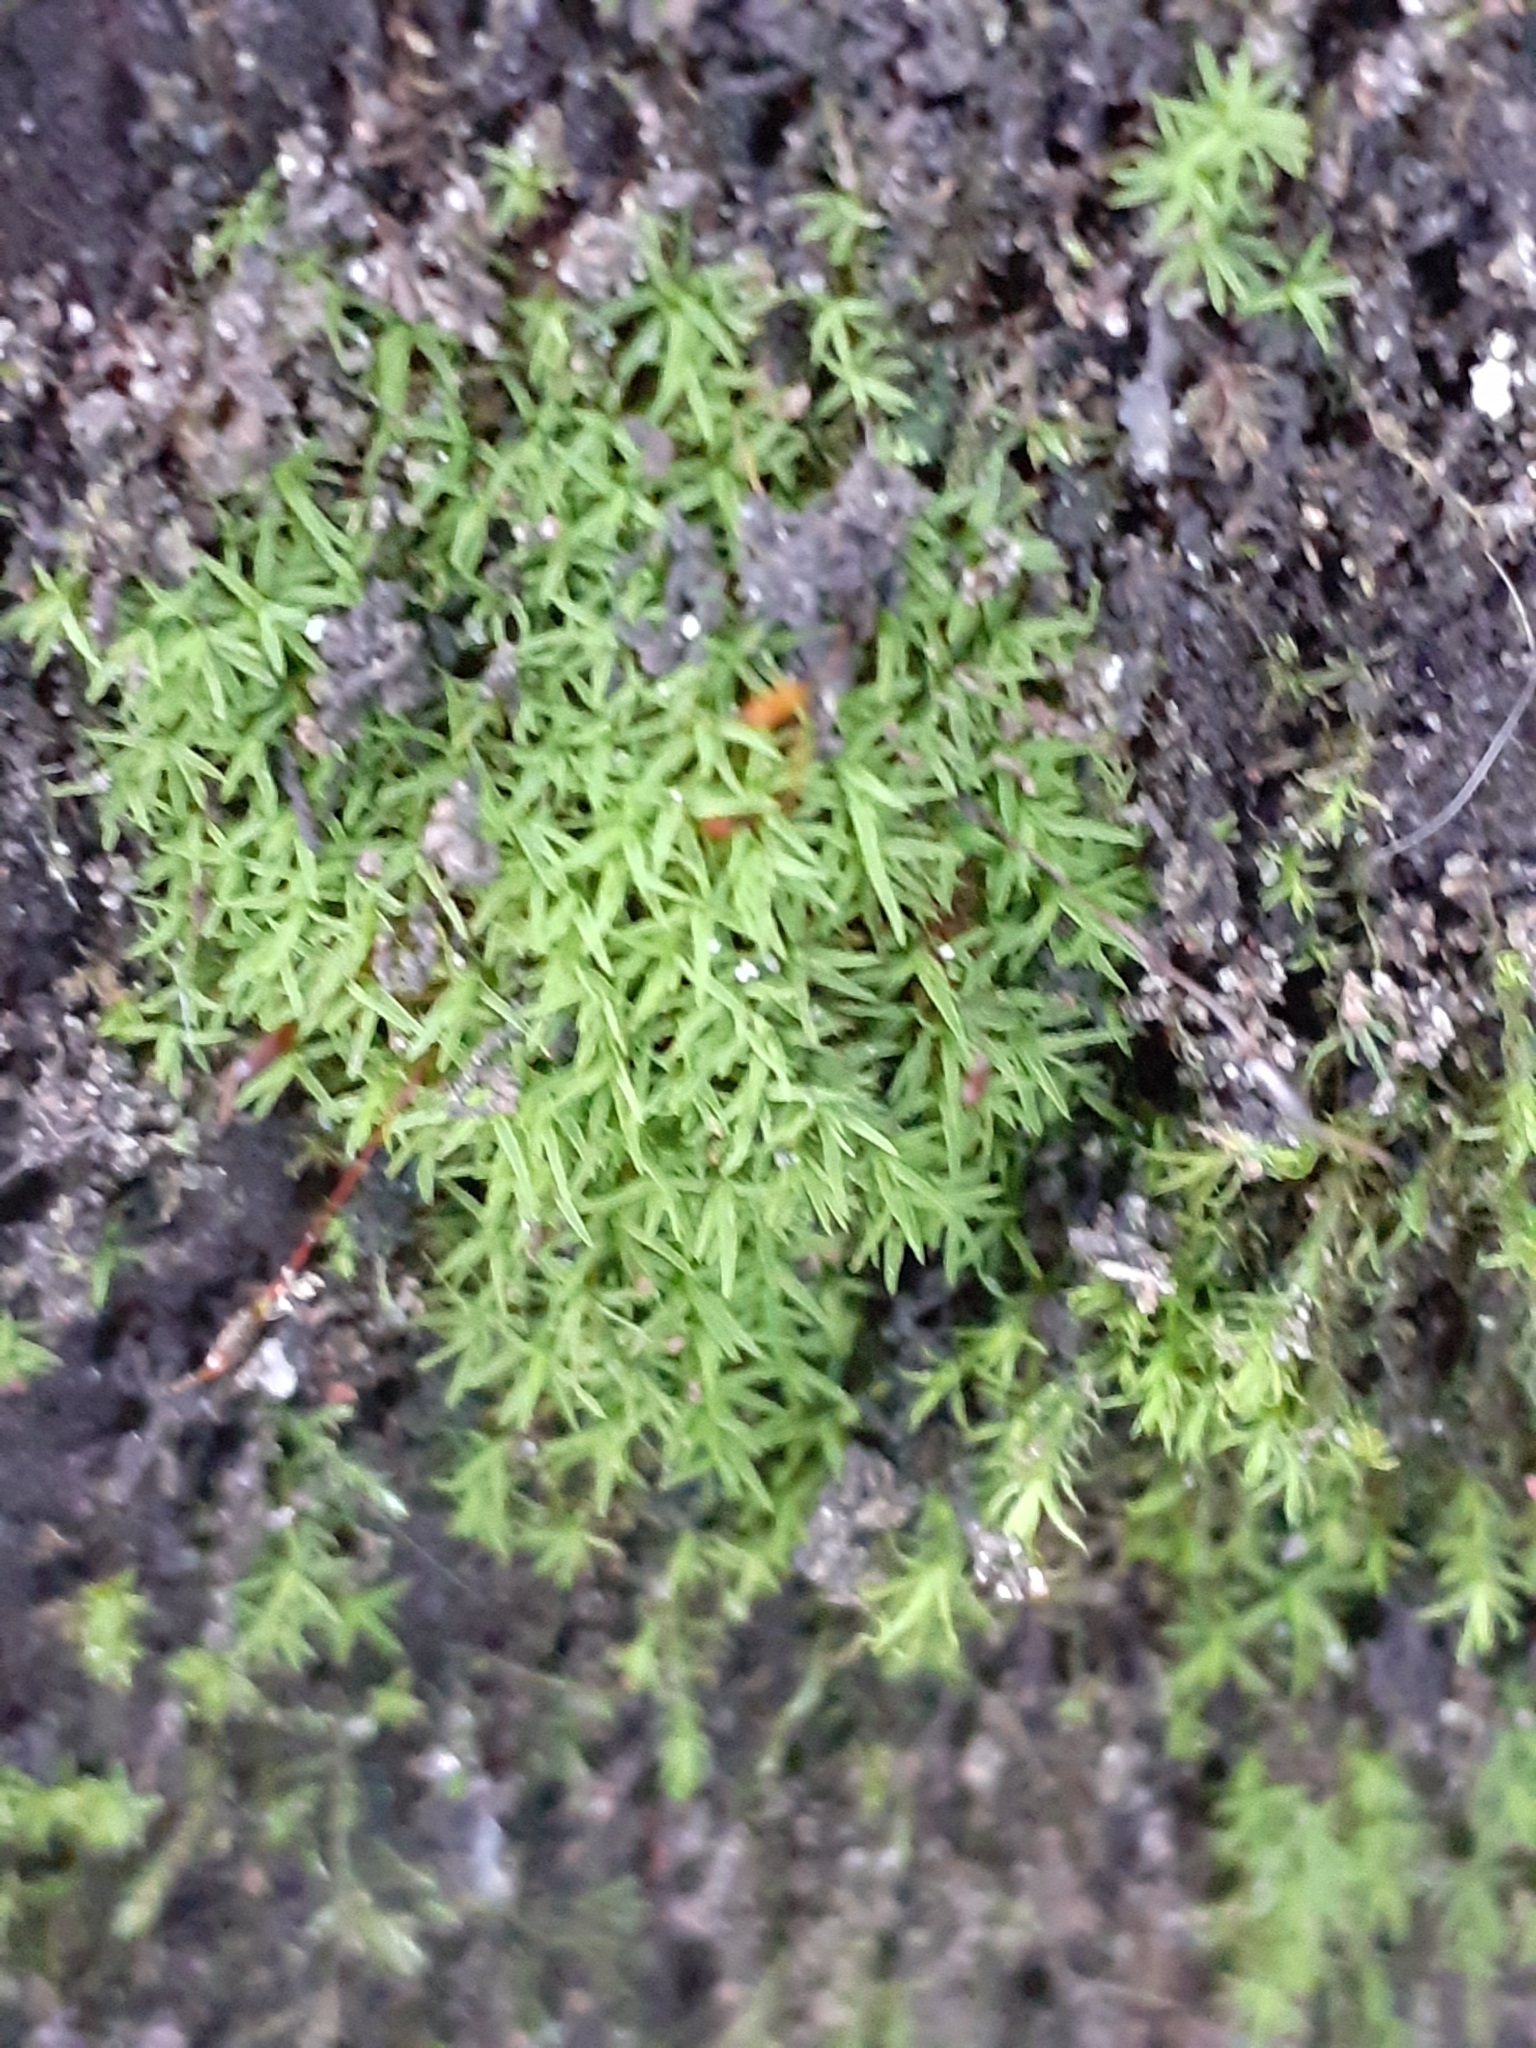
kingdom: Plantae
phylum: Bryophyta
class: Bryopsida
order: Pottiales
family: Pottiaceae
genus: Bryoerythrophyllum
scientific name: Bryoerythrophyllum recurvirostrum
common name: Red beard moss
